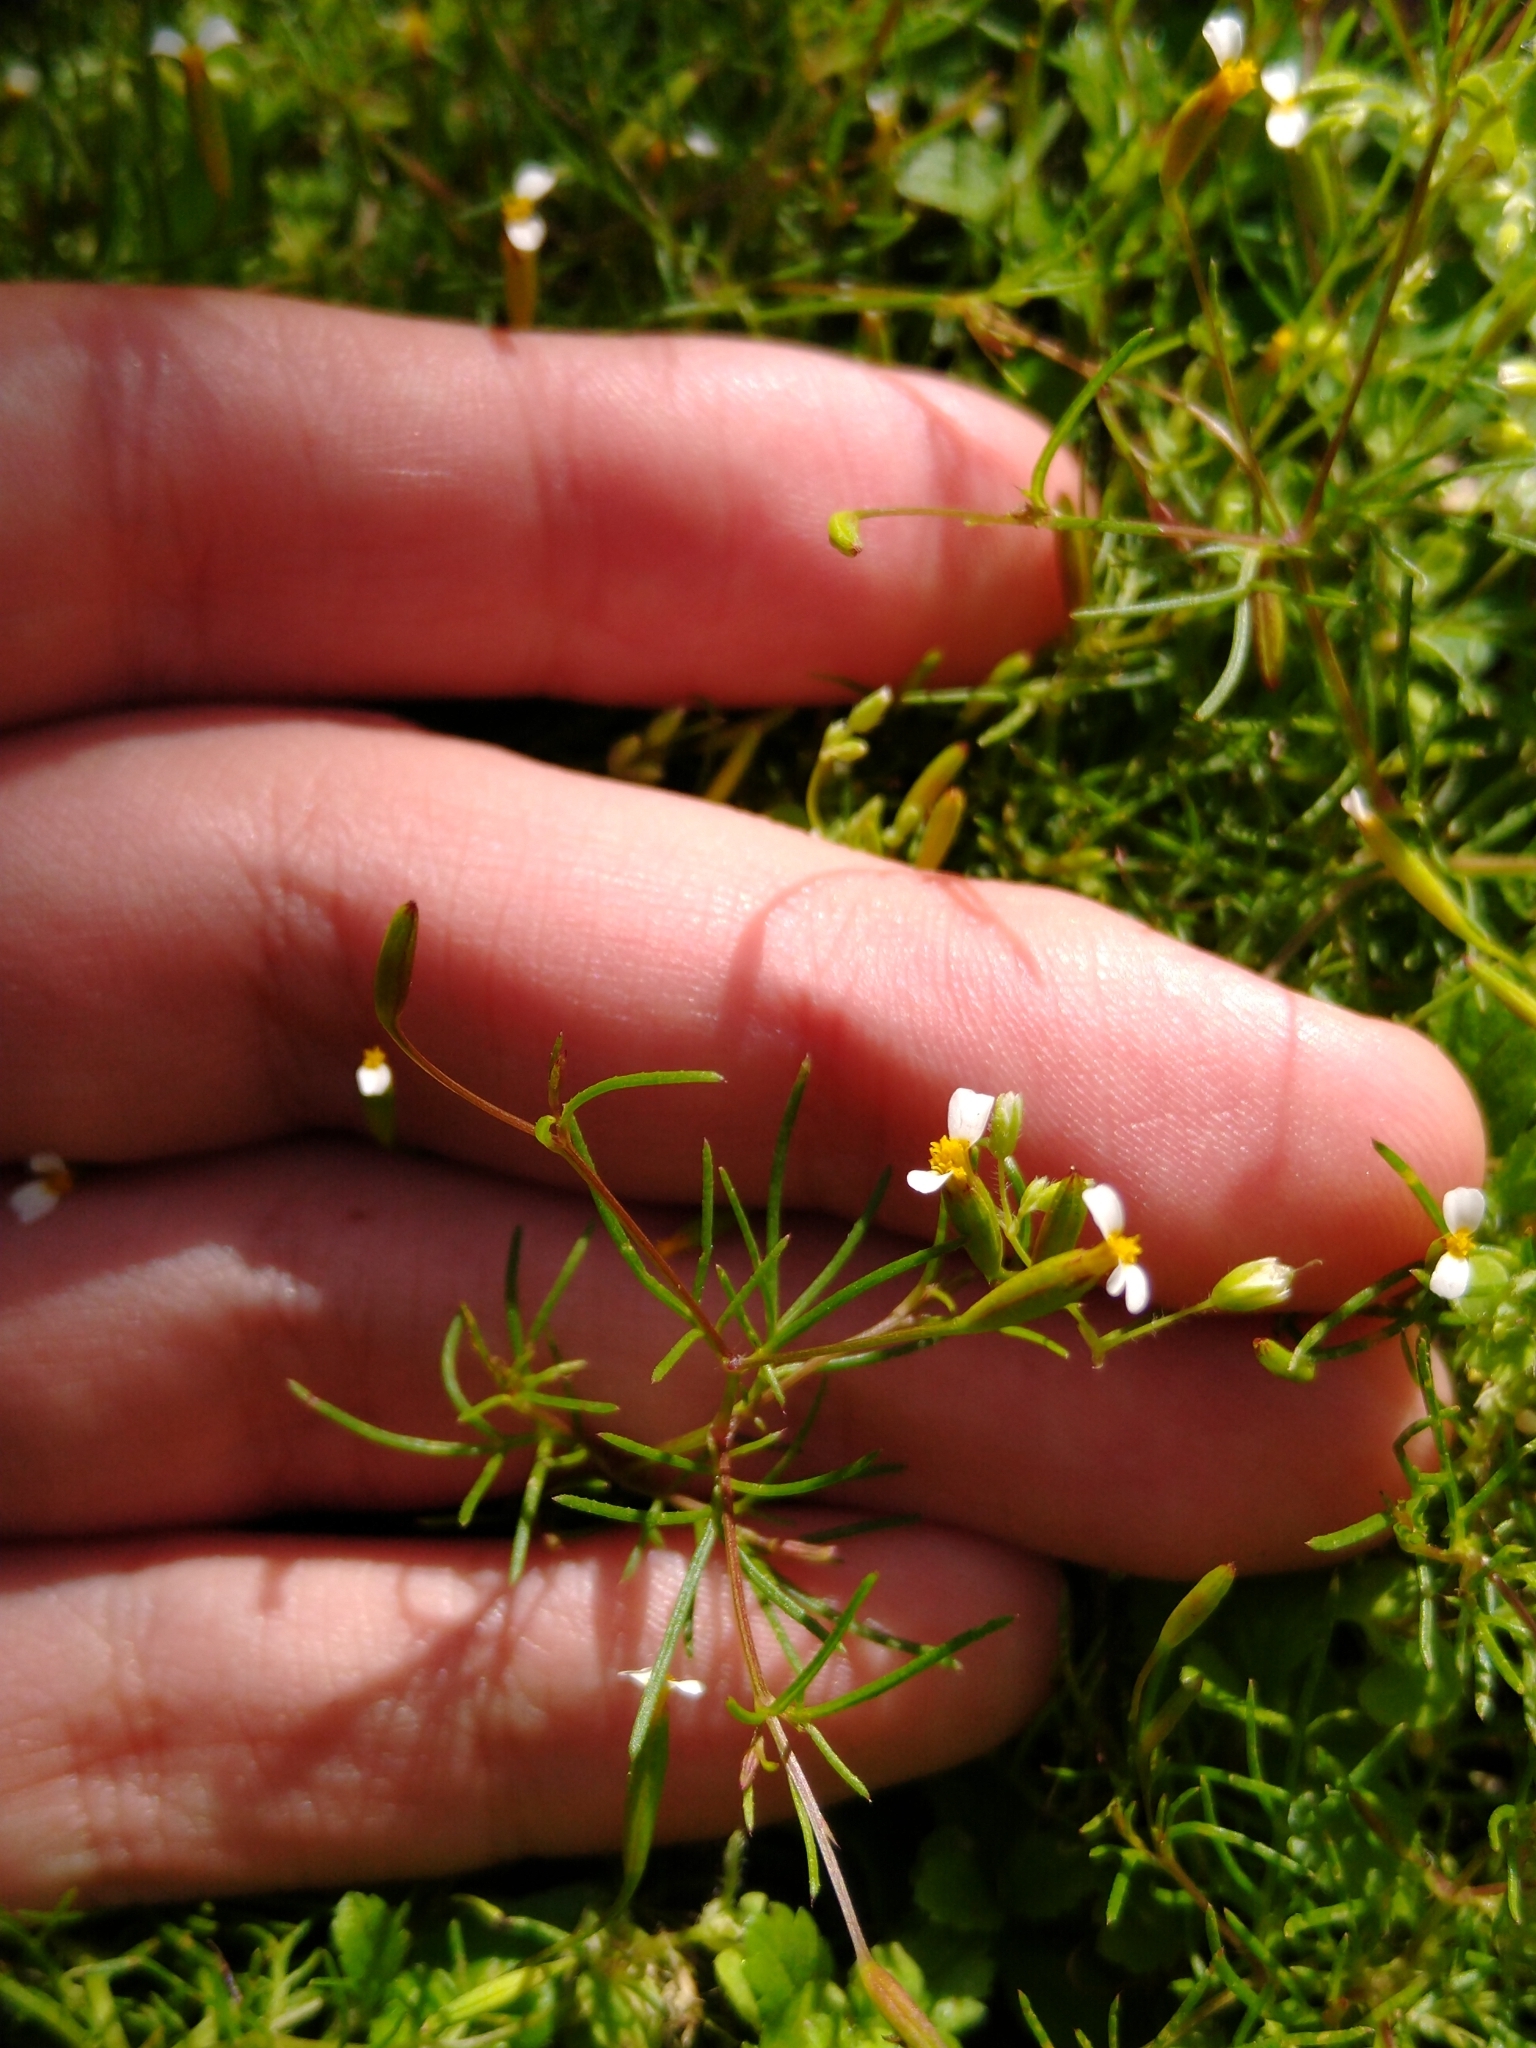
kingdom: Plantae
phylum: Tracheophyta
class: Magnoliopsida
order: Asterales
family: Asteraceae
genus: Tagetes
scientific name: Tagetes micrantha
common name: Licorice marigold
